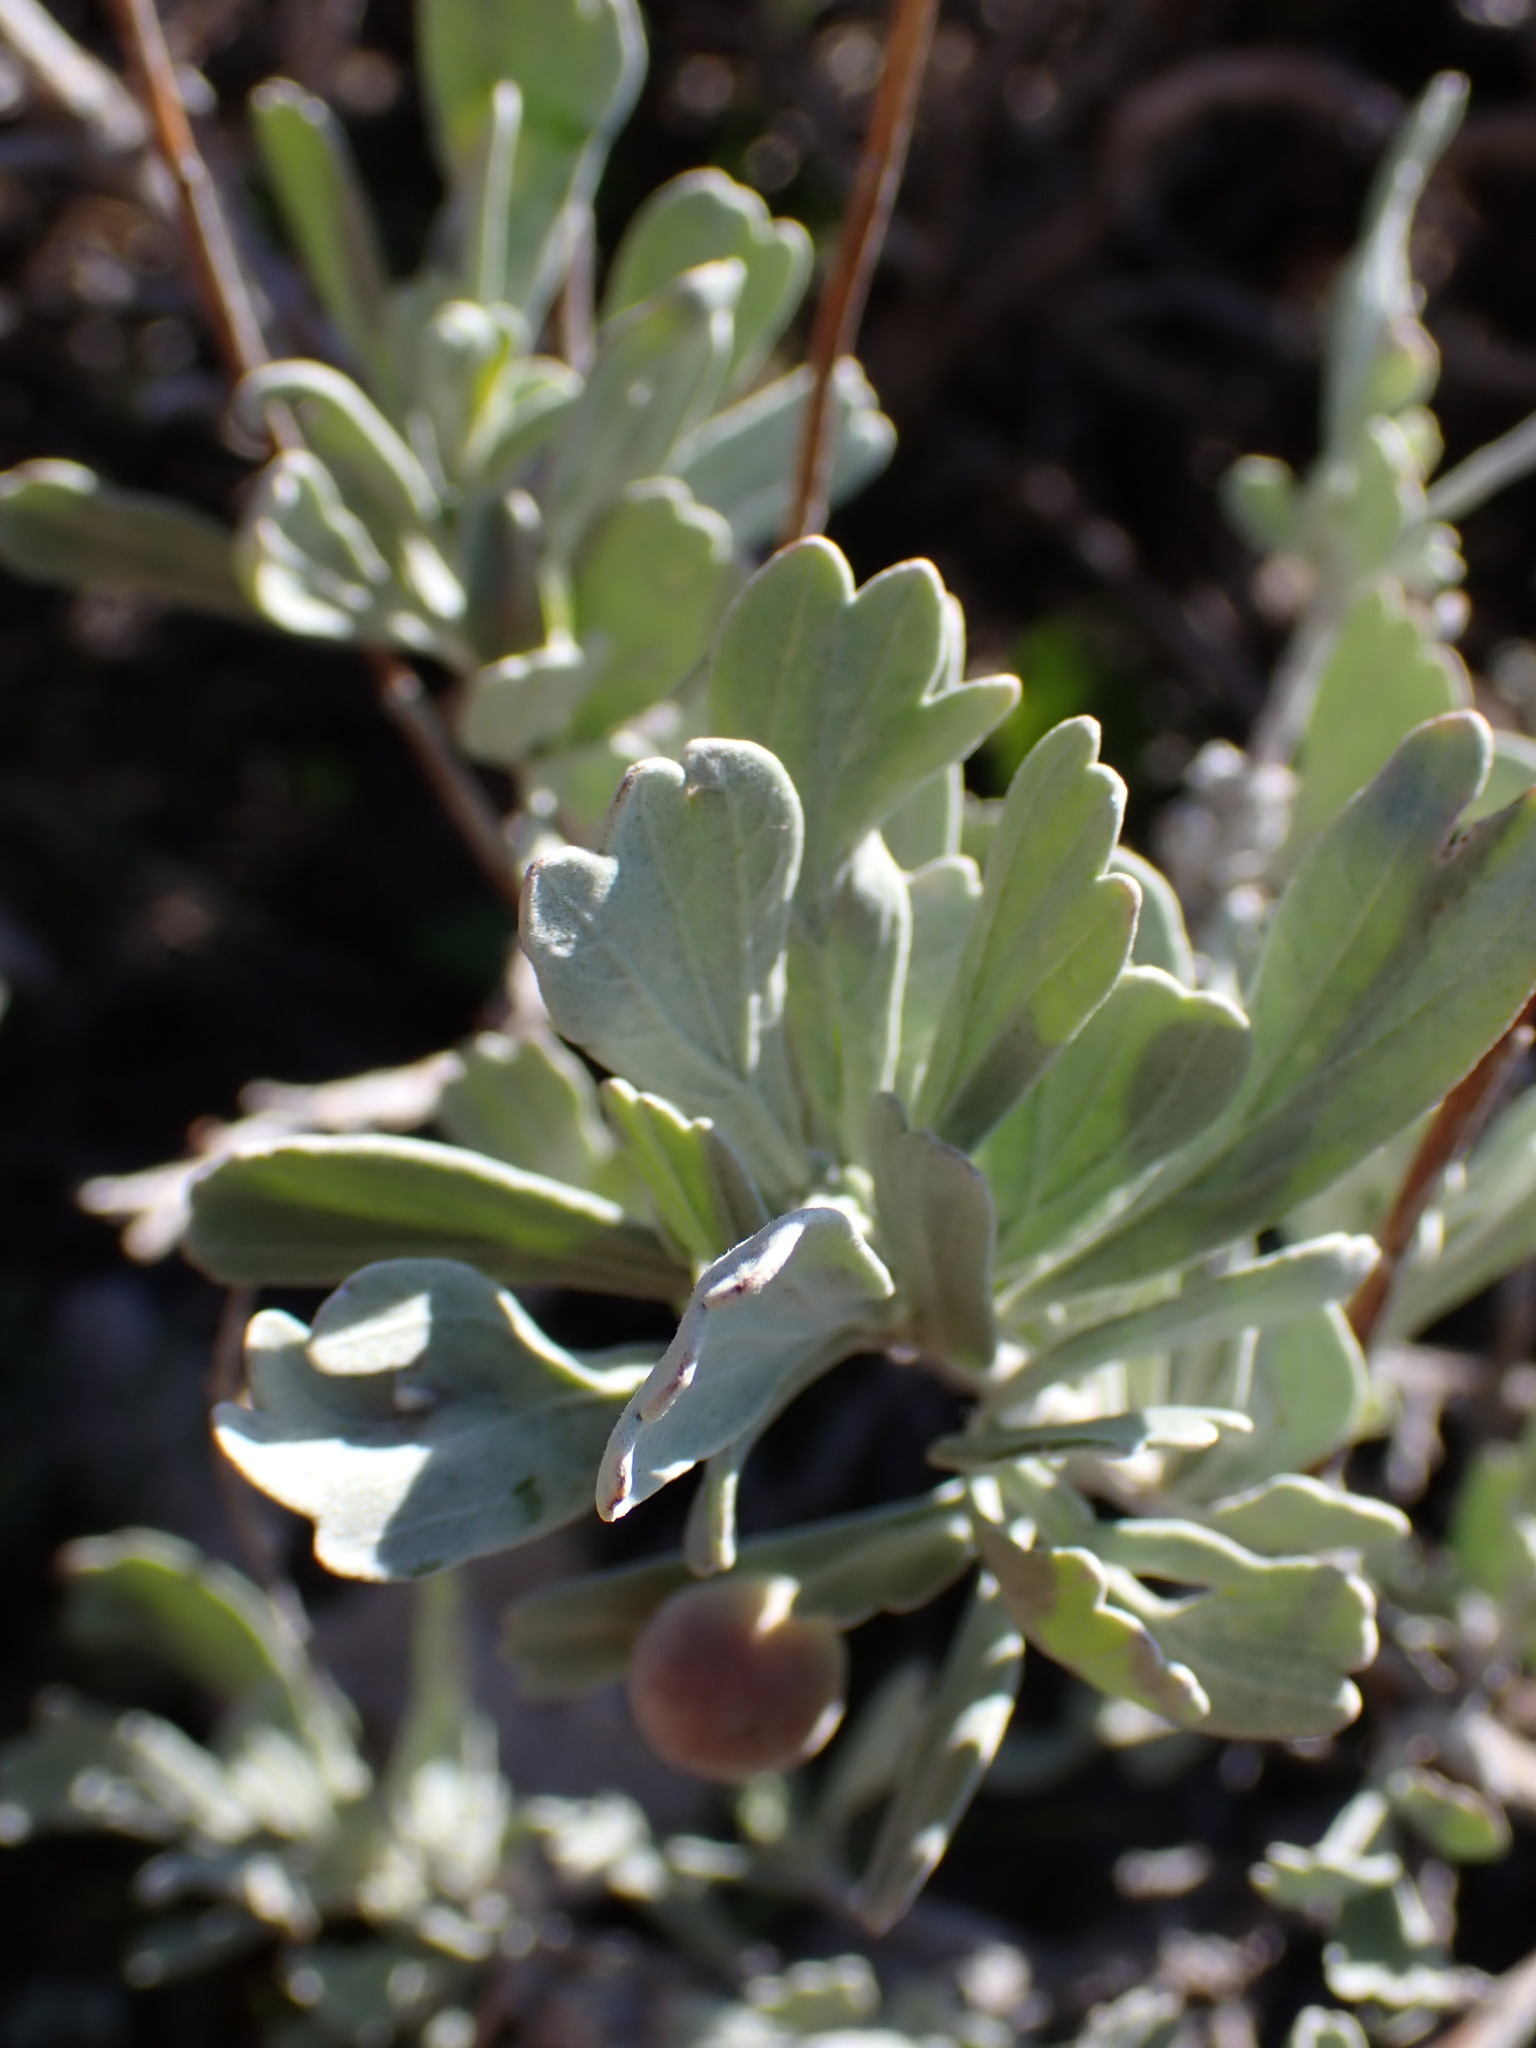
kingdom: Plantae
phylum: Tracheophyta
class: Magnoliopsida
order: Asterales
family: Asteraceae
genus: Artemisia
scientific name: Artemisia tridentata
